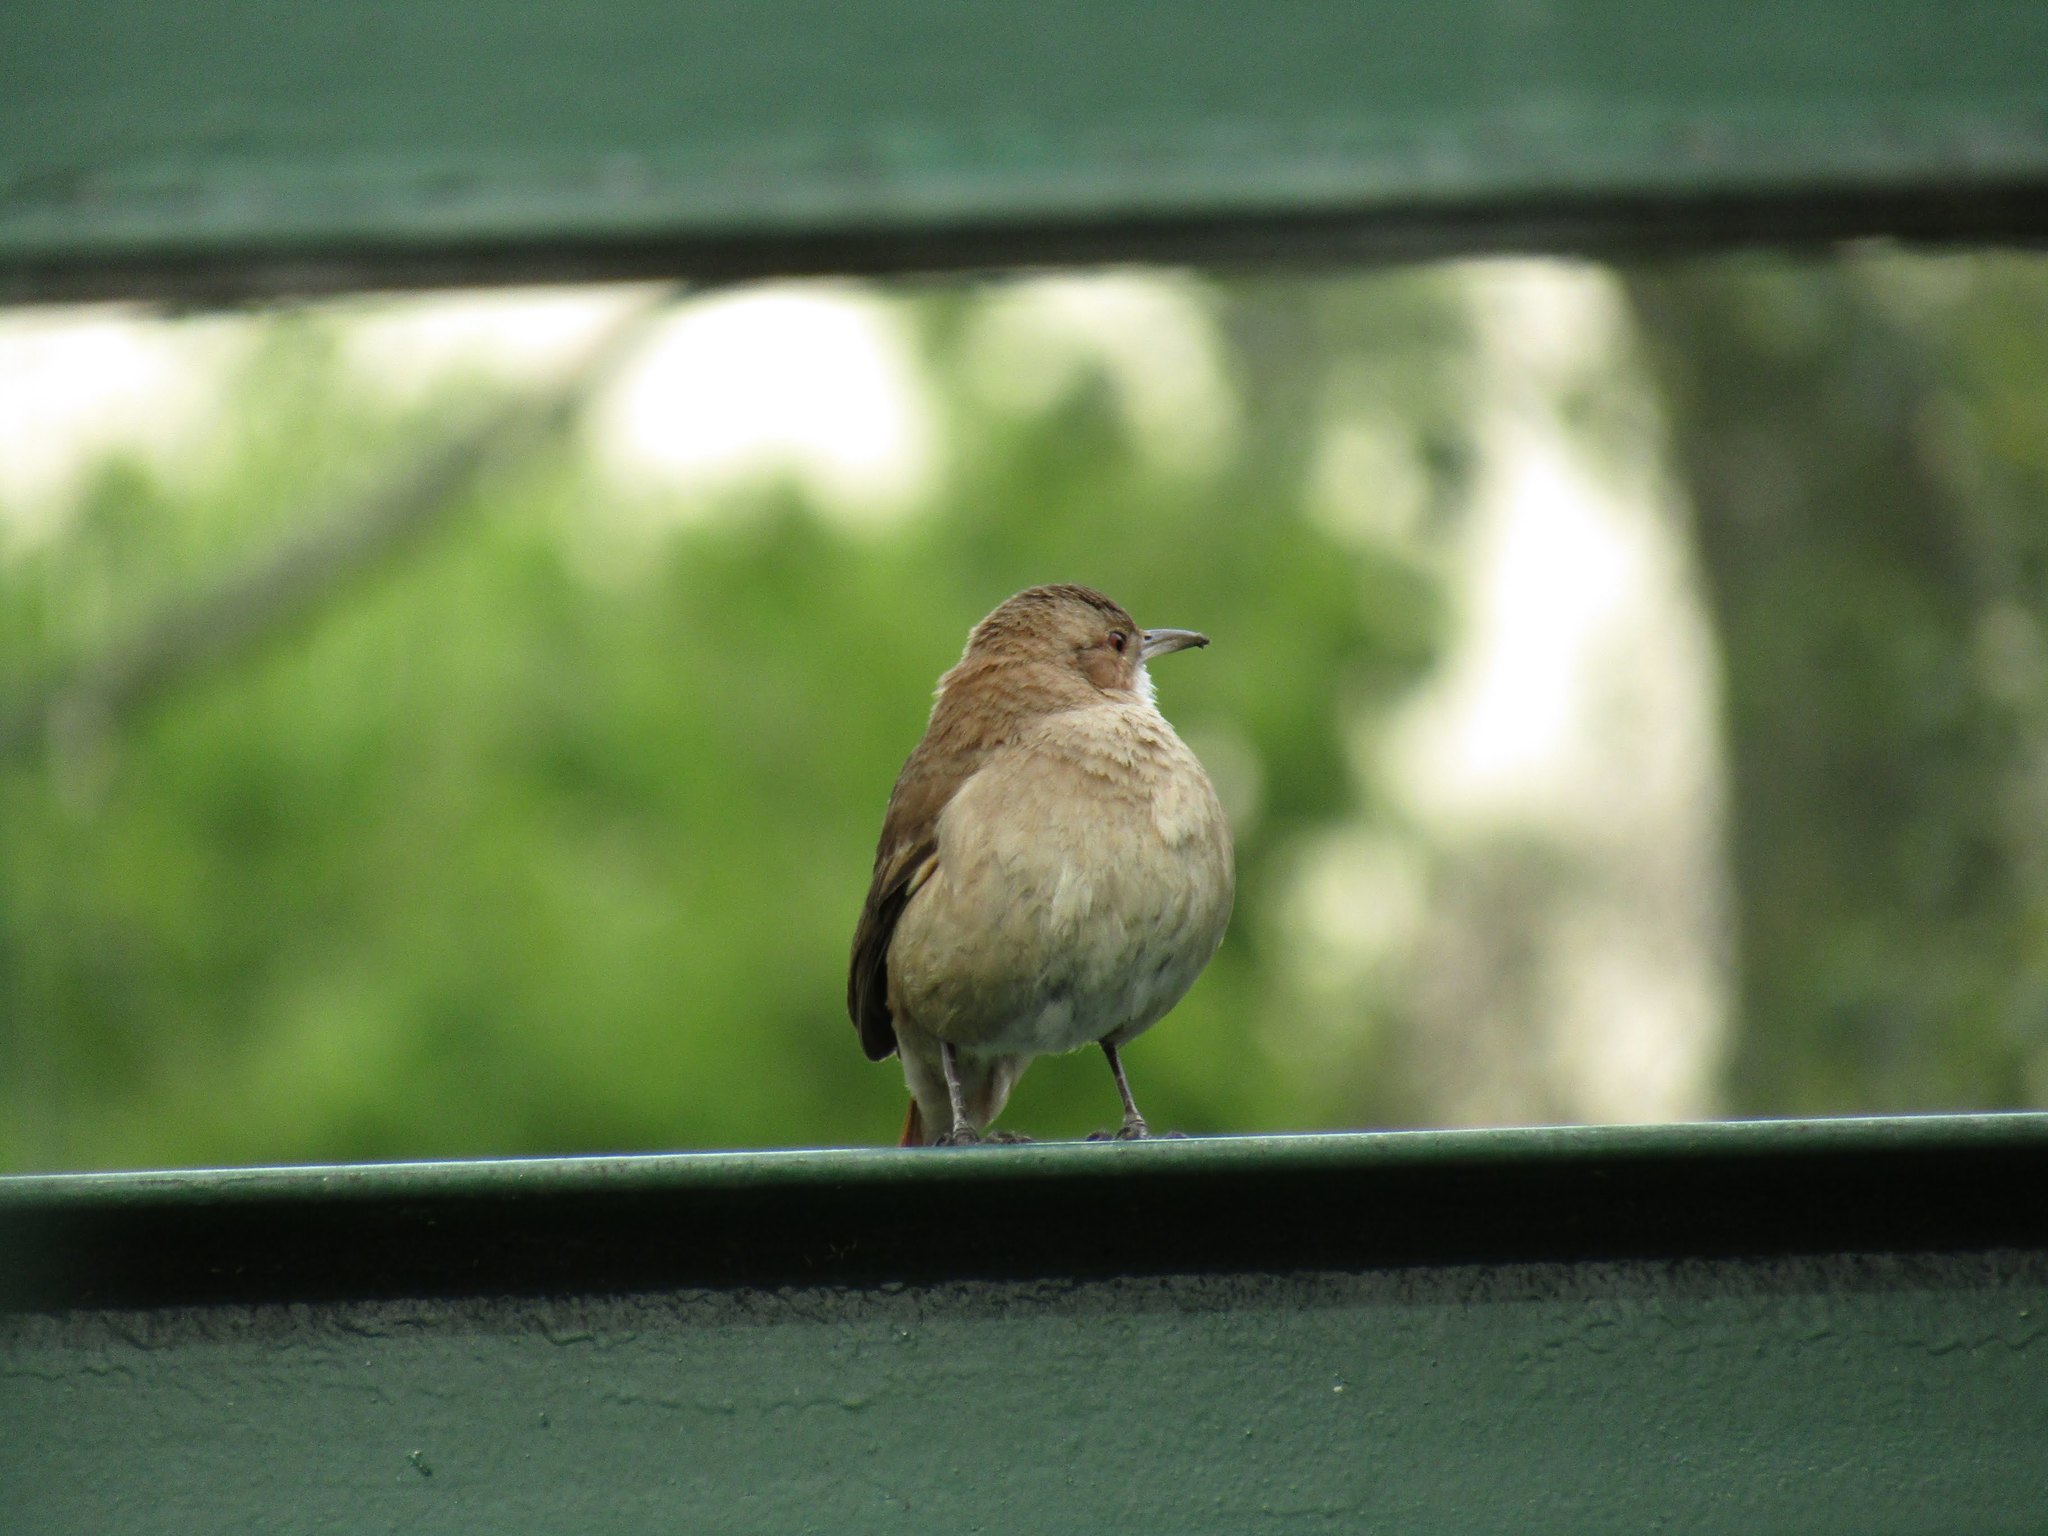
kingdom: Animalia
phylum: Chordata
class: Aves
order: Passeriformes
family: Furnariidae
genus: Furnarius
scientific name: Furnarius rufus
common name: Rufous hornero
